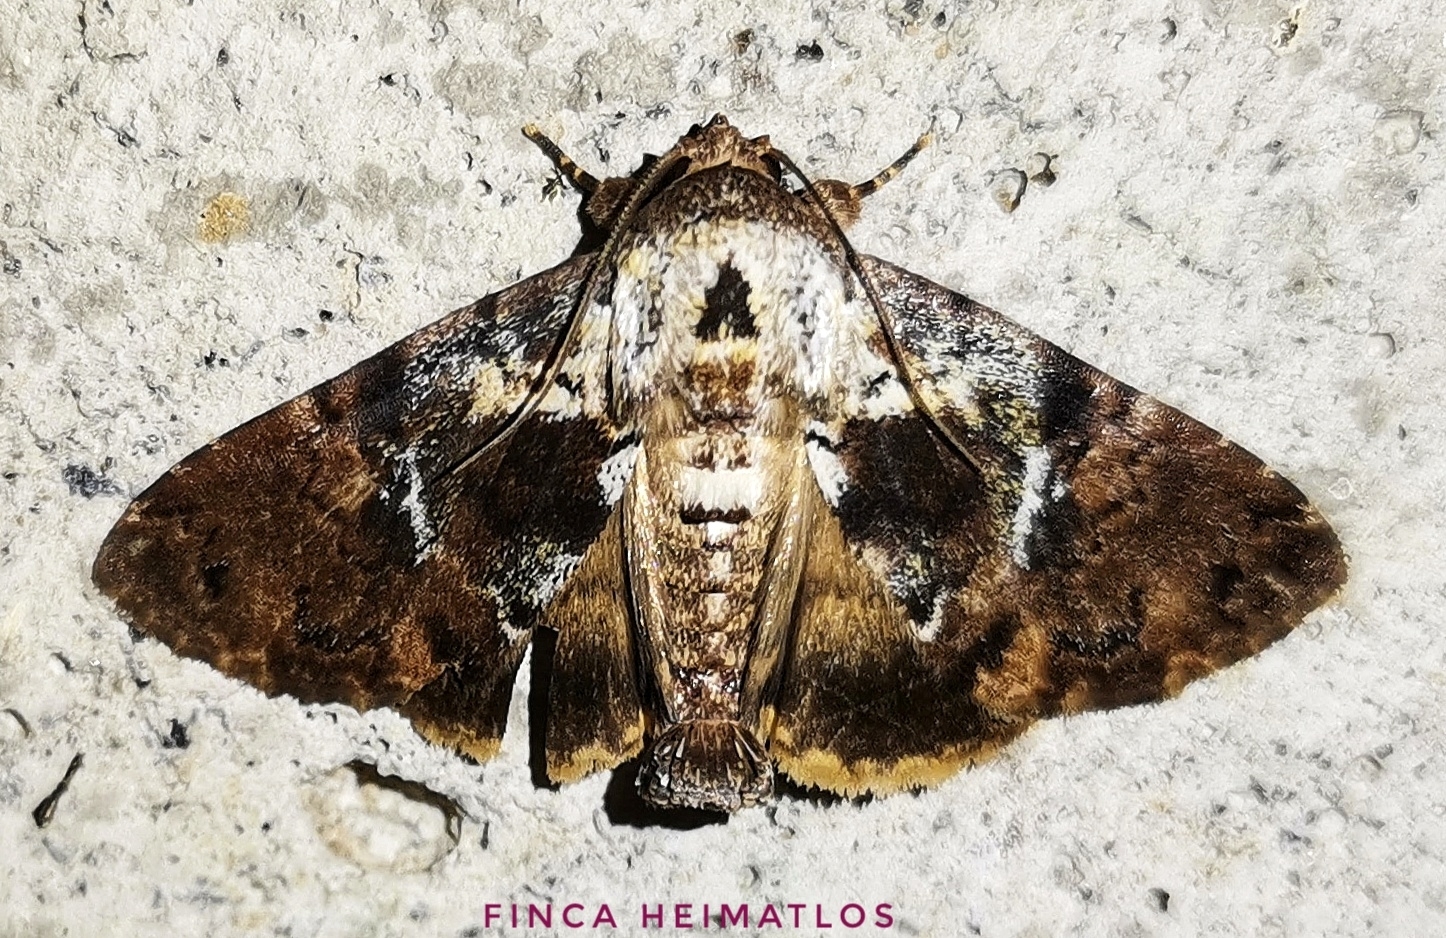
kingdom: Animalia
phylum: Arthropoda
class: Insecta
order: Lepidoptera
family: Erebidae
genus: Dyops
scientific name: Dyops telharsa
